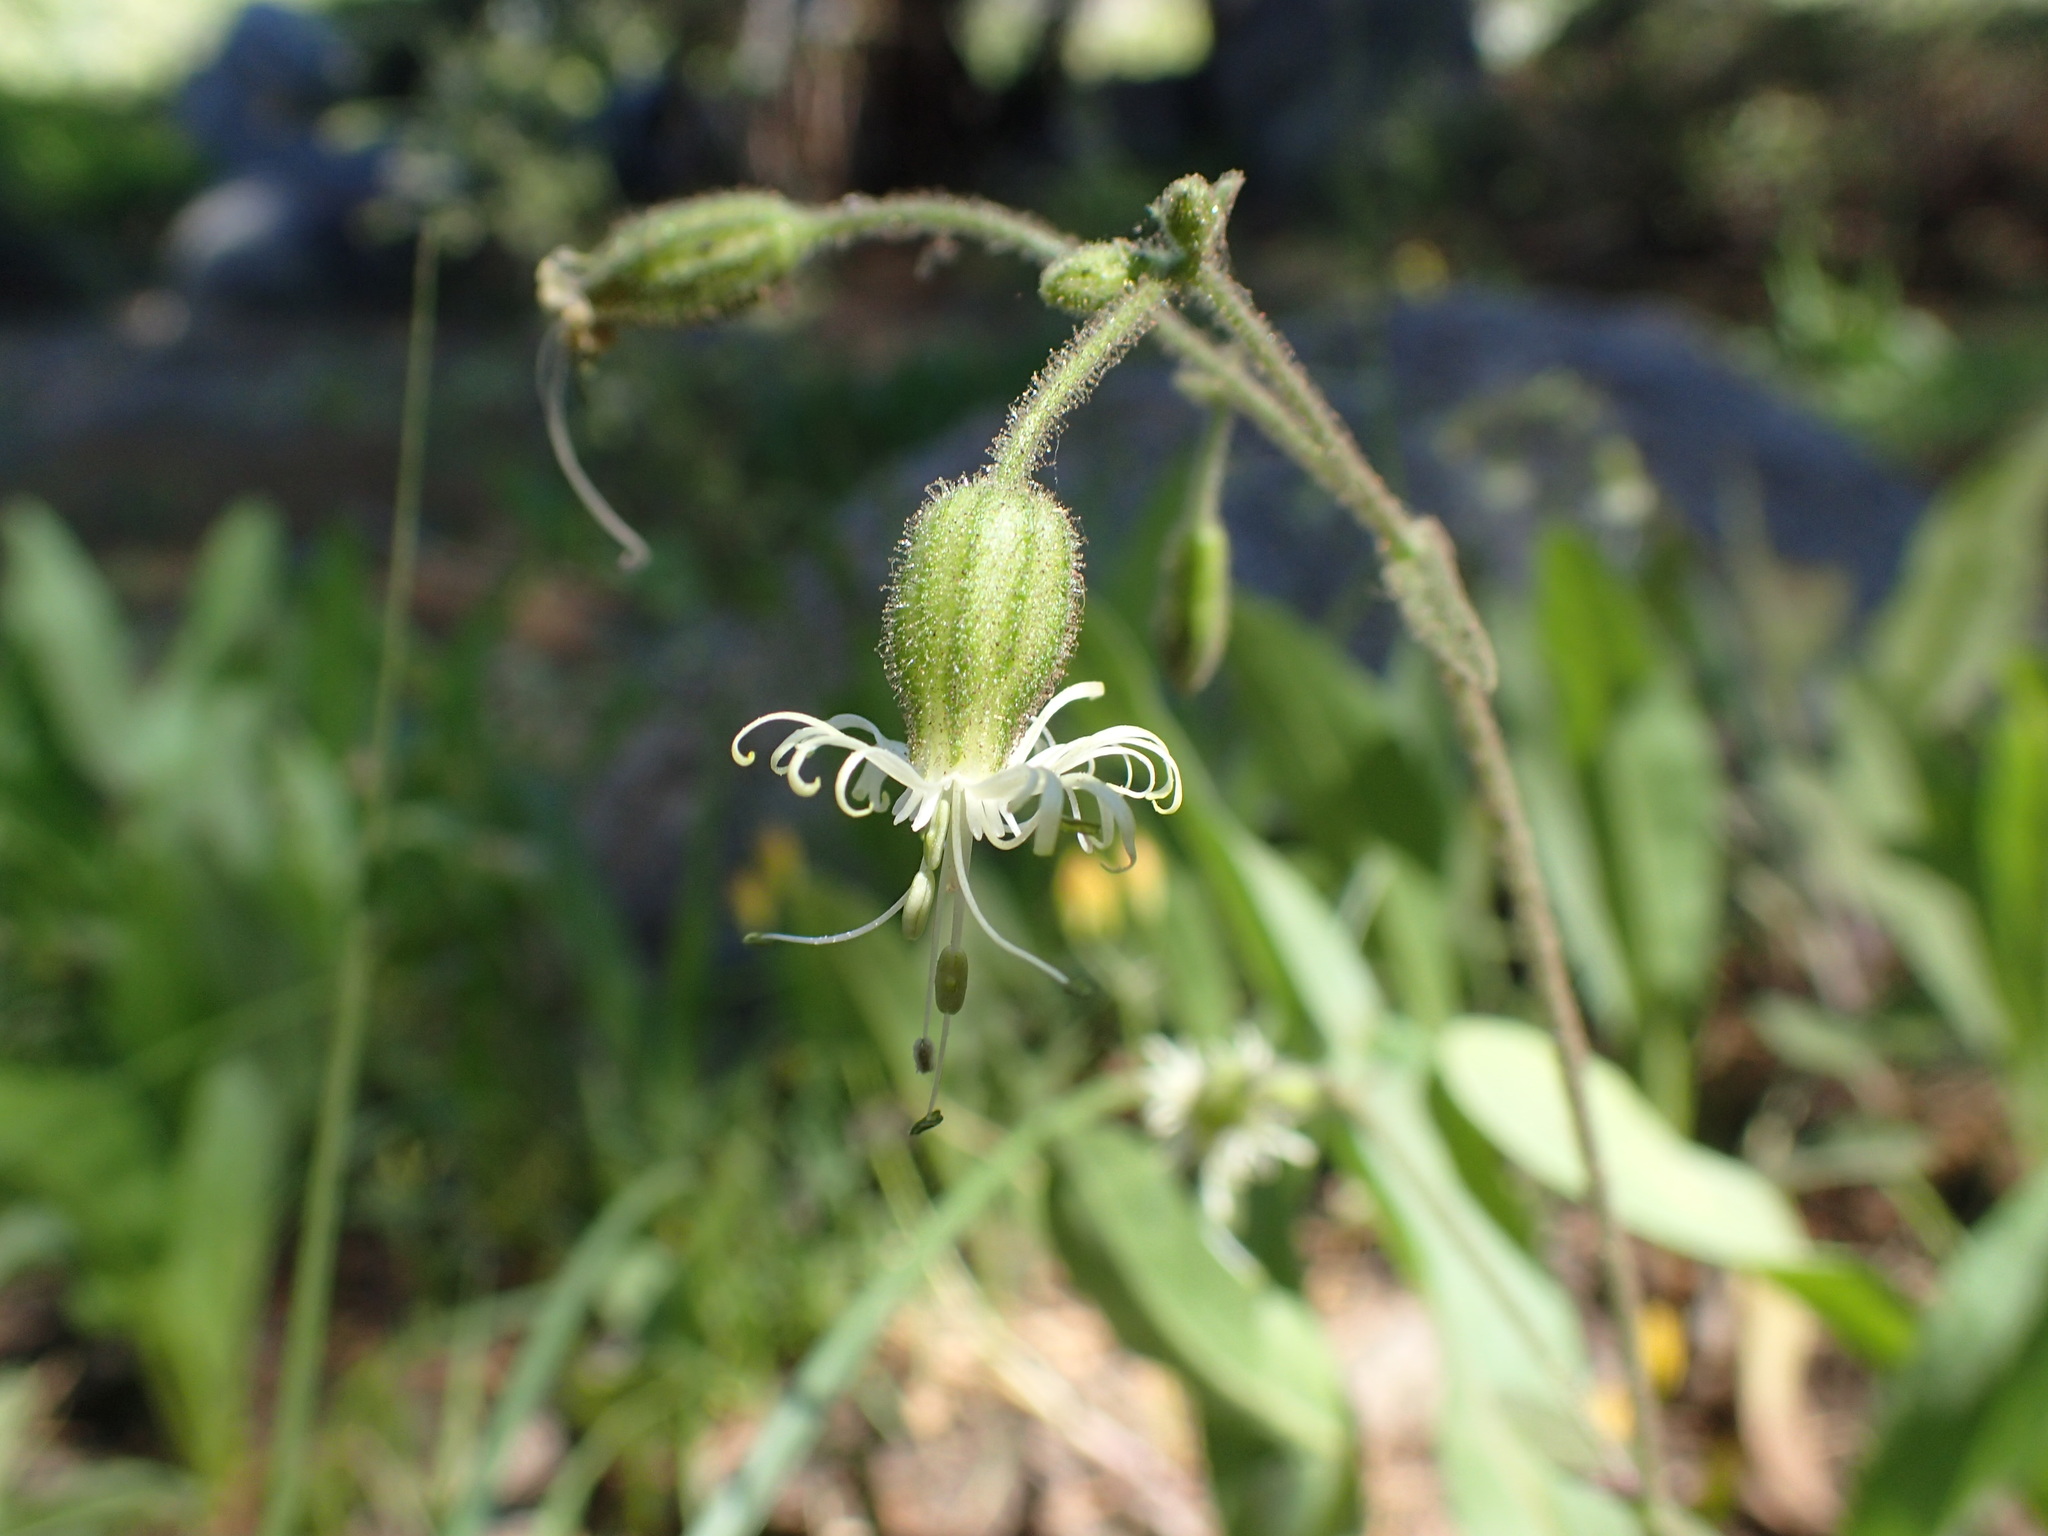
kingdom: Plantae
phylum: Tracheophyta
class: Magnoliopsida
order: Caryophyllales
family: Caryophyllaceae
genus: Silene
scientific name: Silene lemmonii
